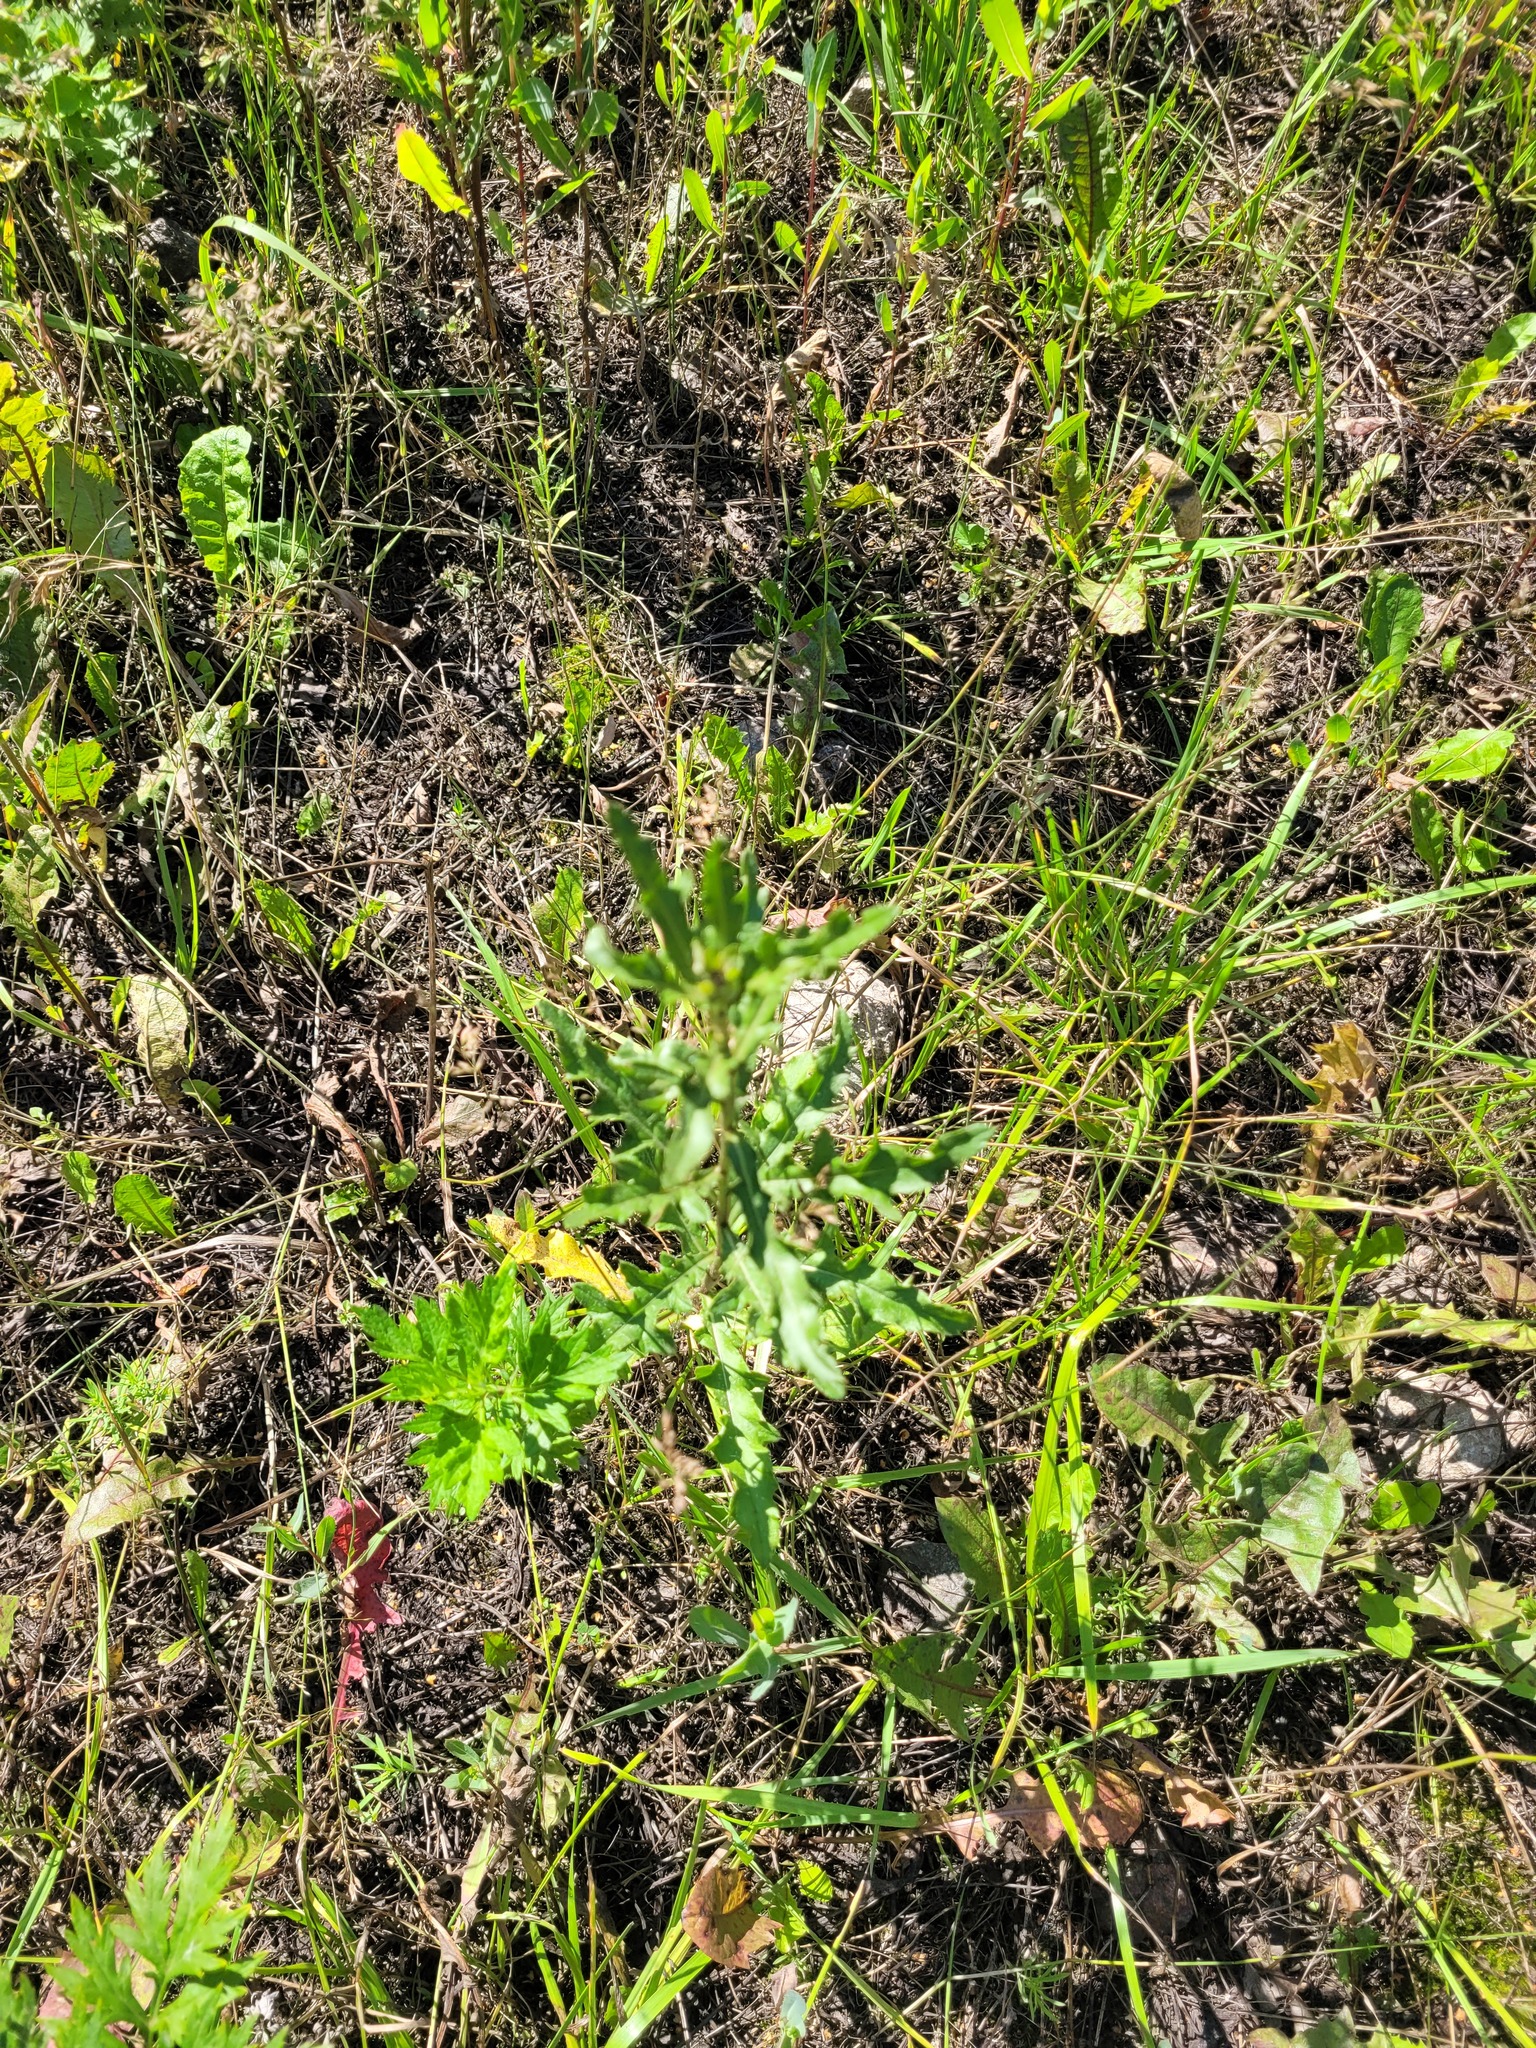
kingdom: Plantae
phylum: Tracheophyta
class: Magnoliopsida
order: Asterales
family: Asteraceae
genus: Cirsium
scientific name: Cirsium arvense
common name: Creeping thistle
